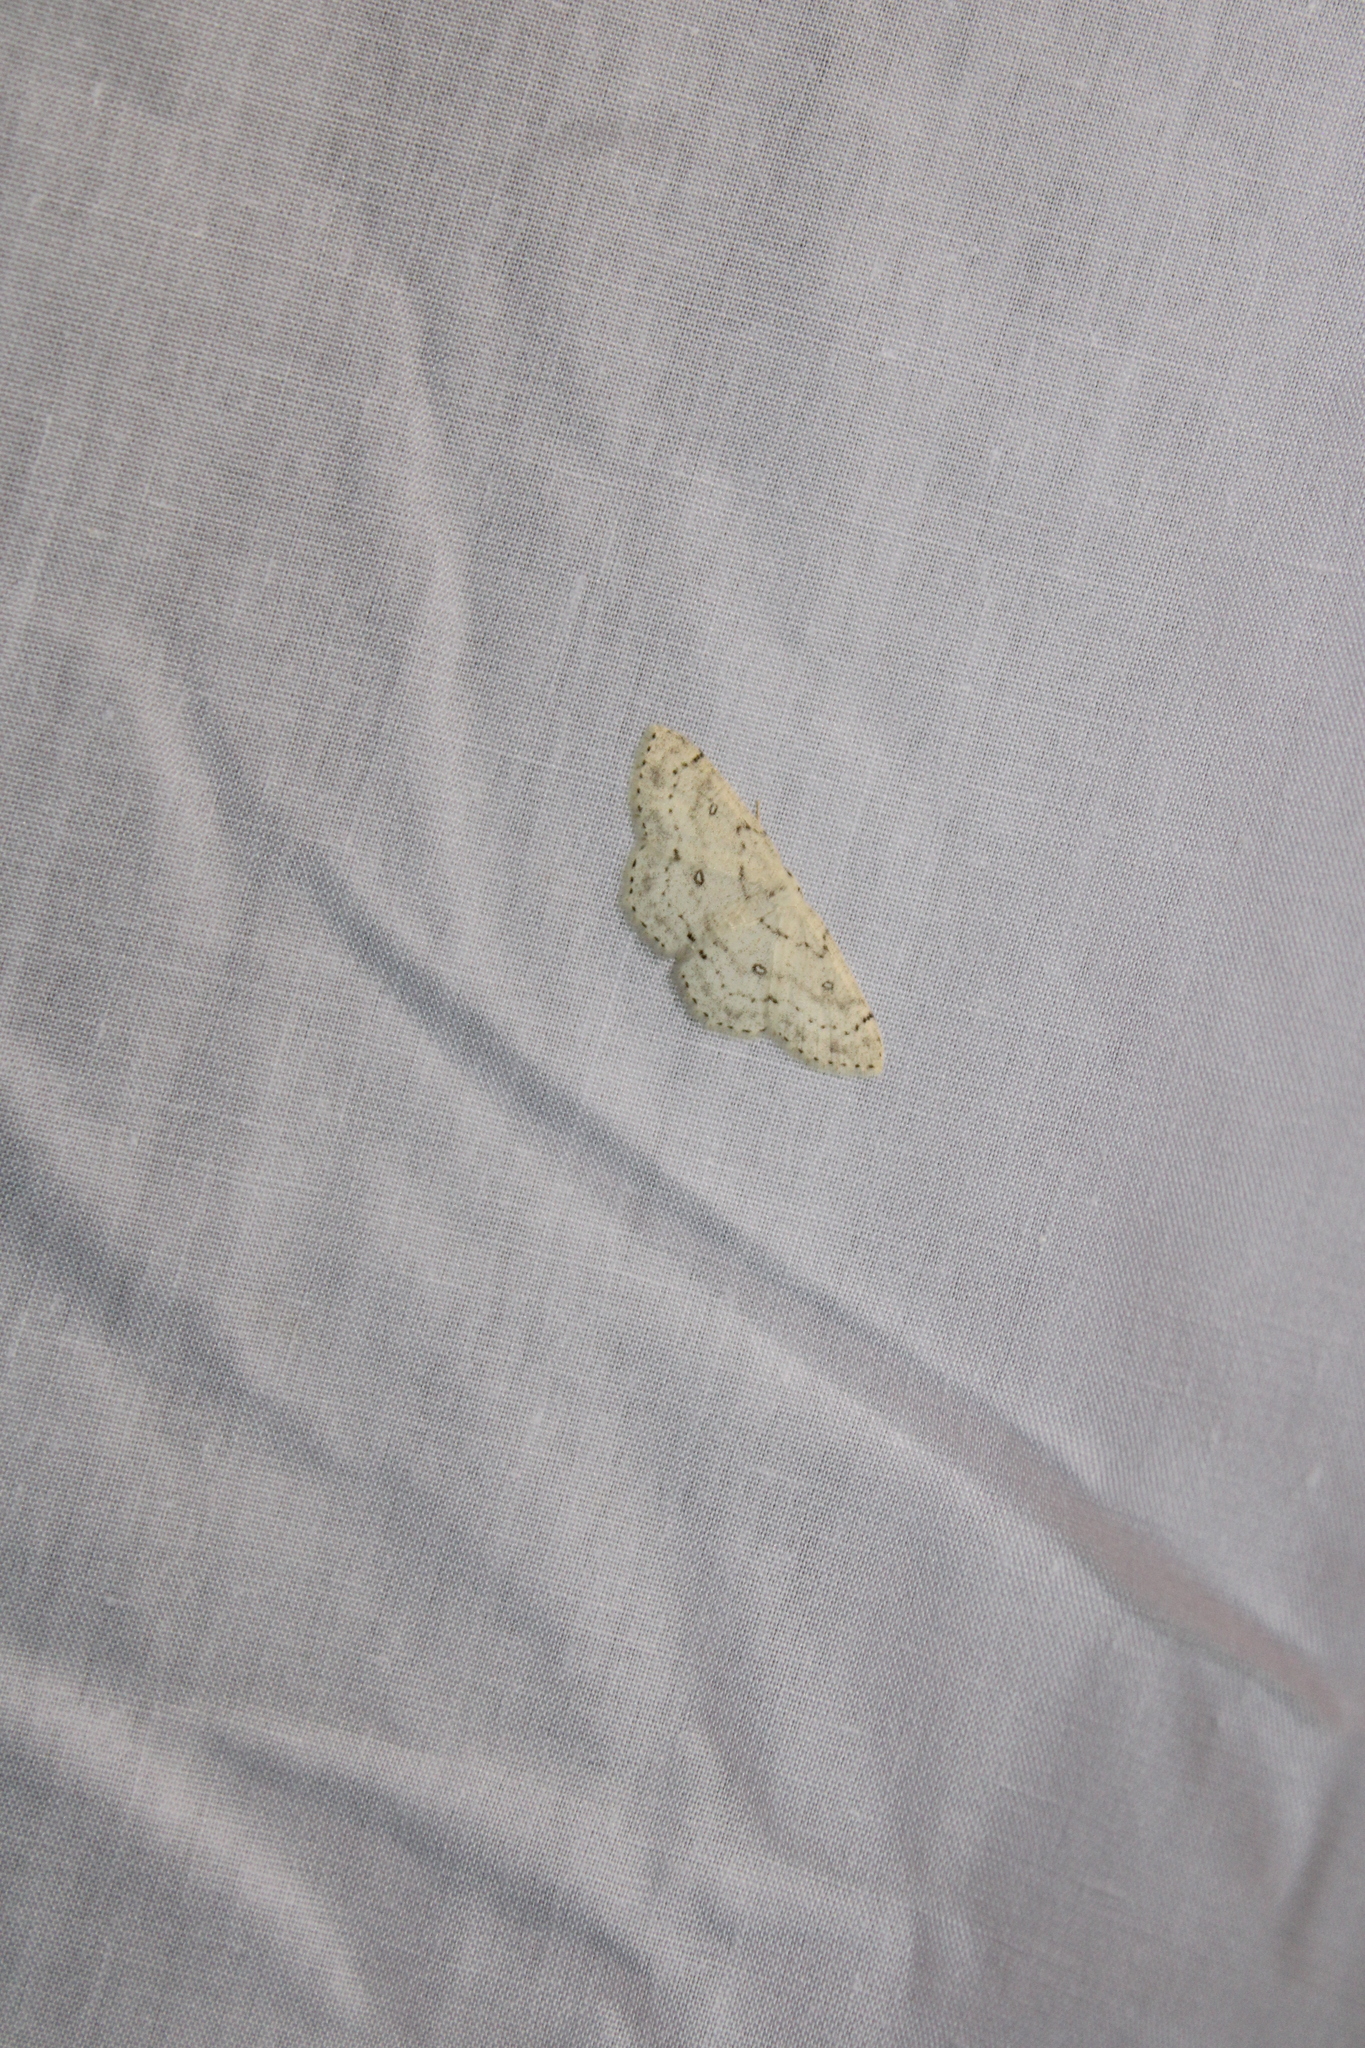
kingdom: Animalia
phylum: Arthropoda
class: Insecta
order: Lepidoptera
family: Geometridae
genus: Cyclophora
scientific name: Cyclophora pendulinaria
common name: Sweet fern geometer
